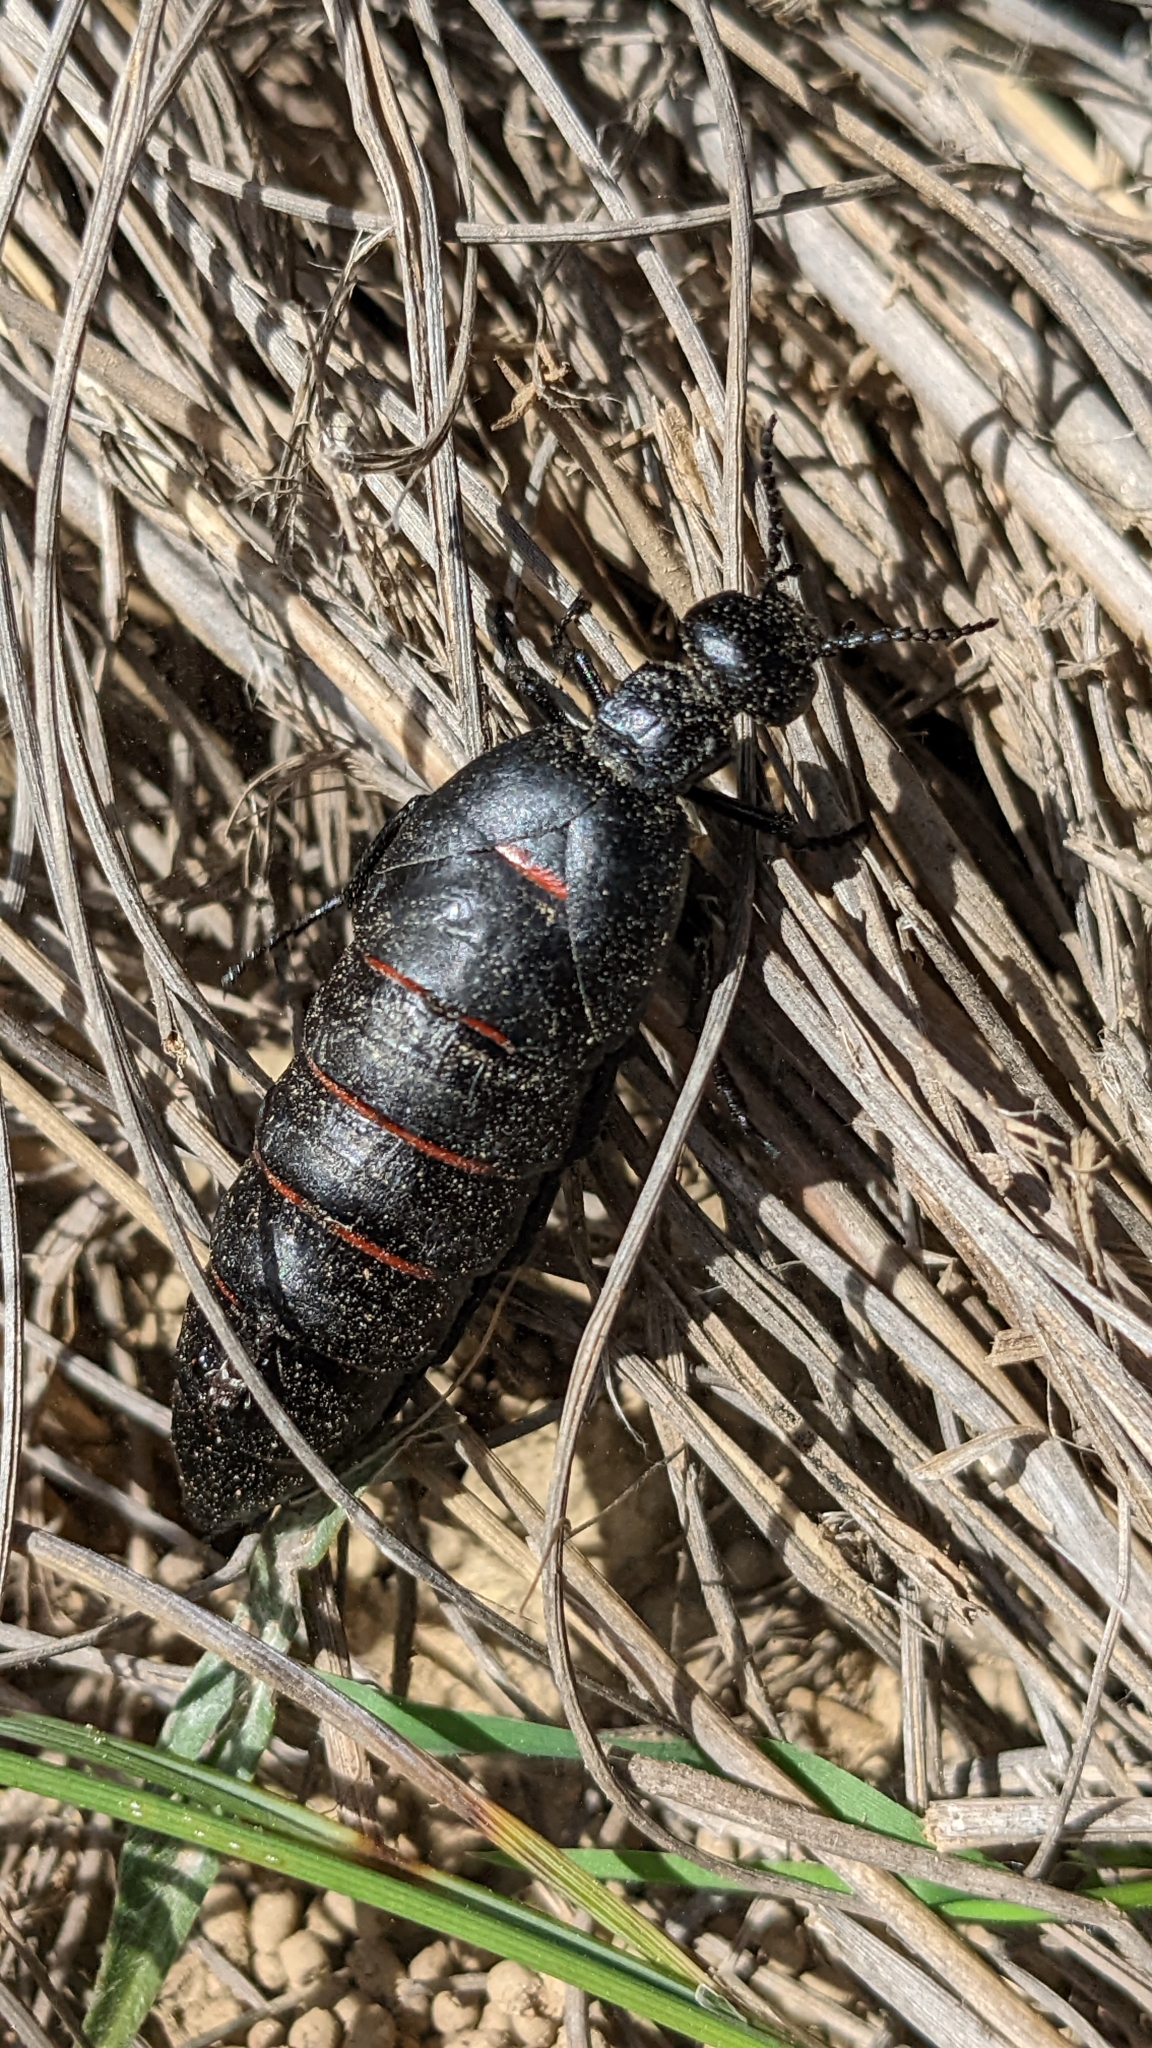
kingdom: Animalia
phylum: Arthropoda
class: Insecta
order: Coleoptera
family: Meloidae
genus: Berberomeloe
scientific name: Berberomeloe majalis
